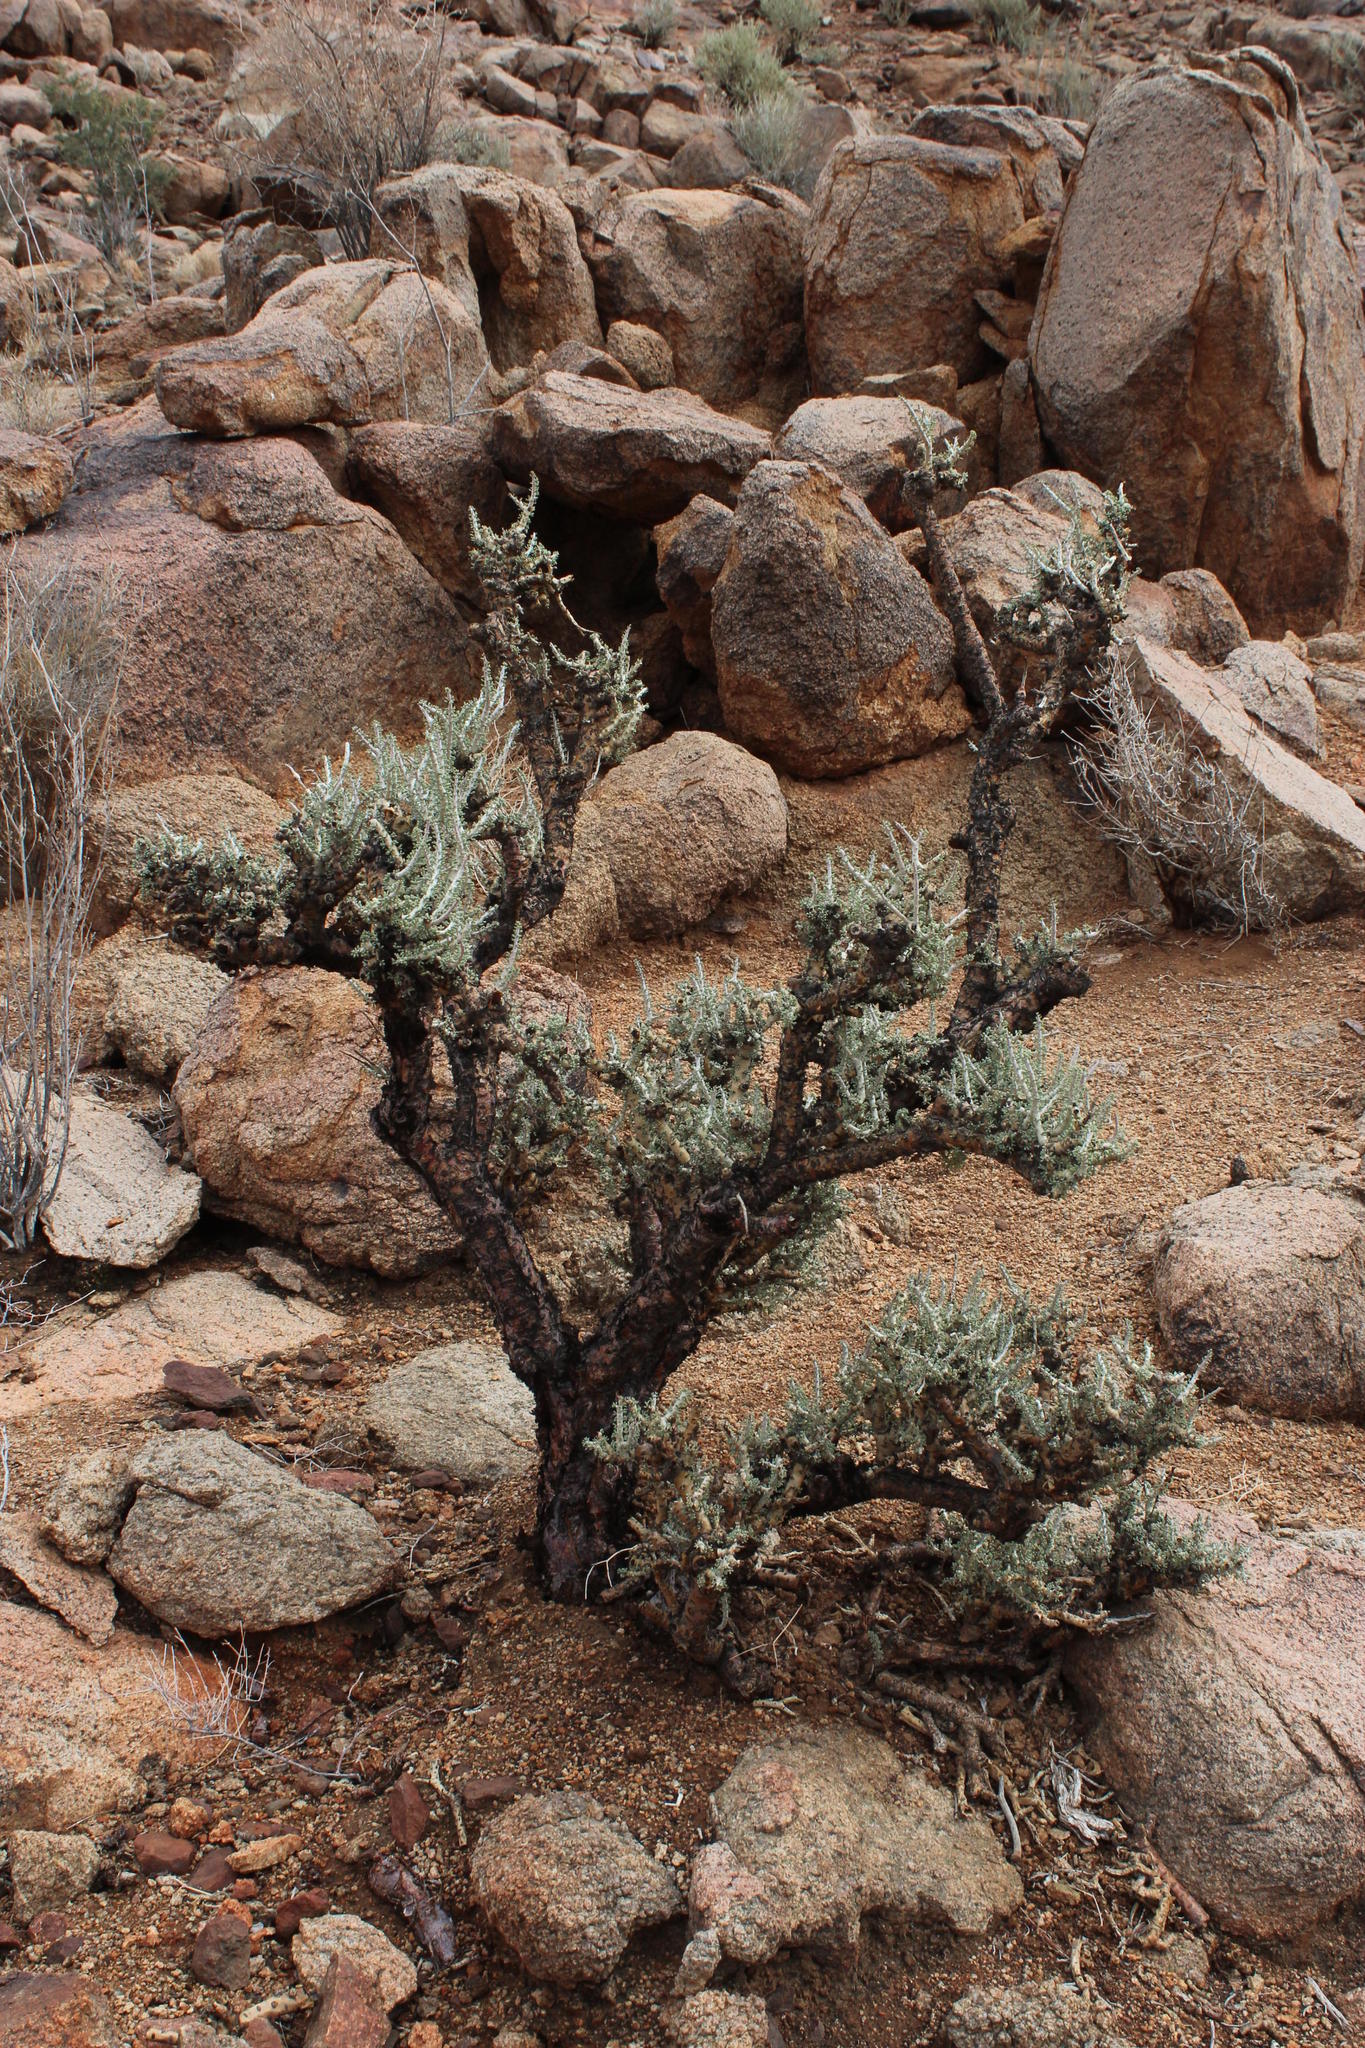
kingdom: Plantae
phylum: Tracheophyta
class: Magnoliopsida
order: Caryophyllales
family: Didiereaceae
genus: Portulacaria
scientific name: Portulacaria namaquensis
